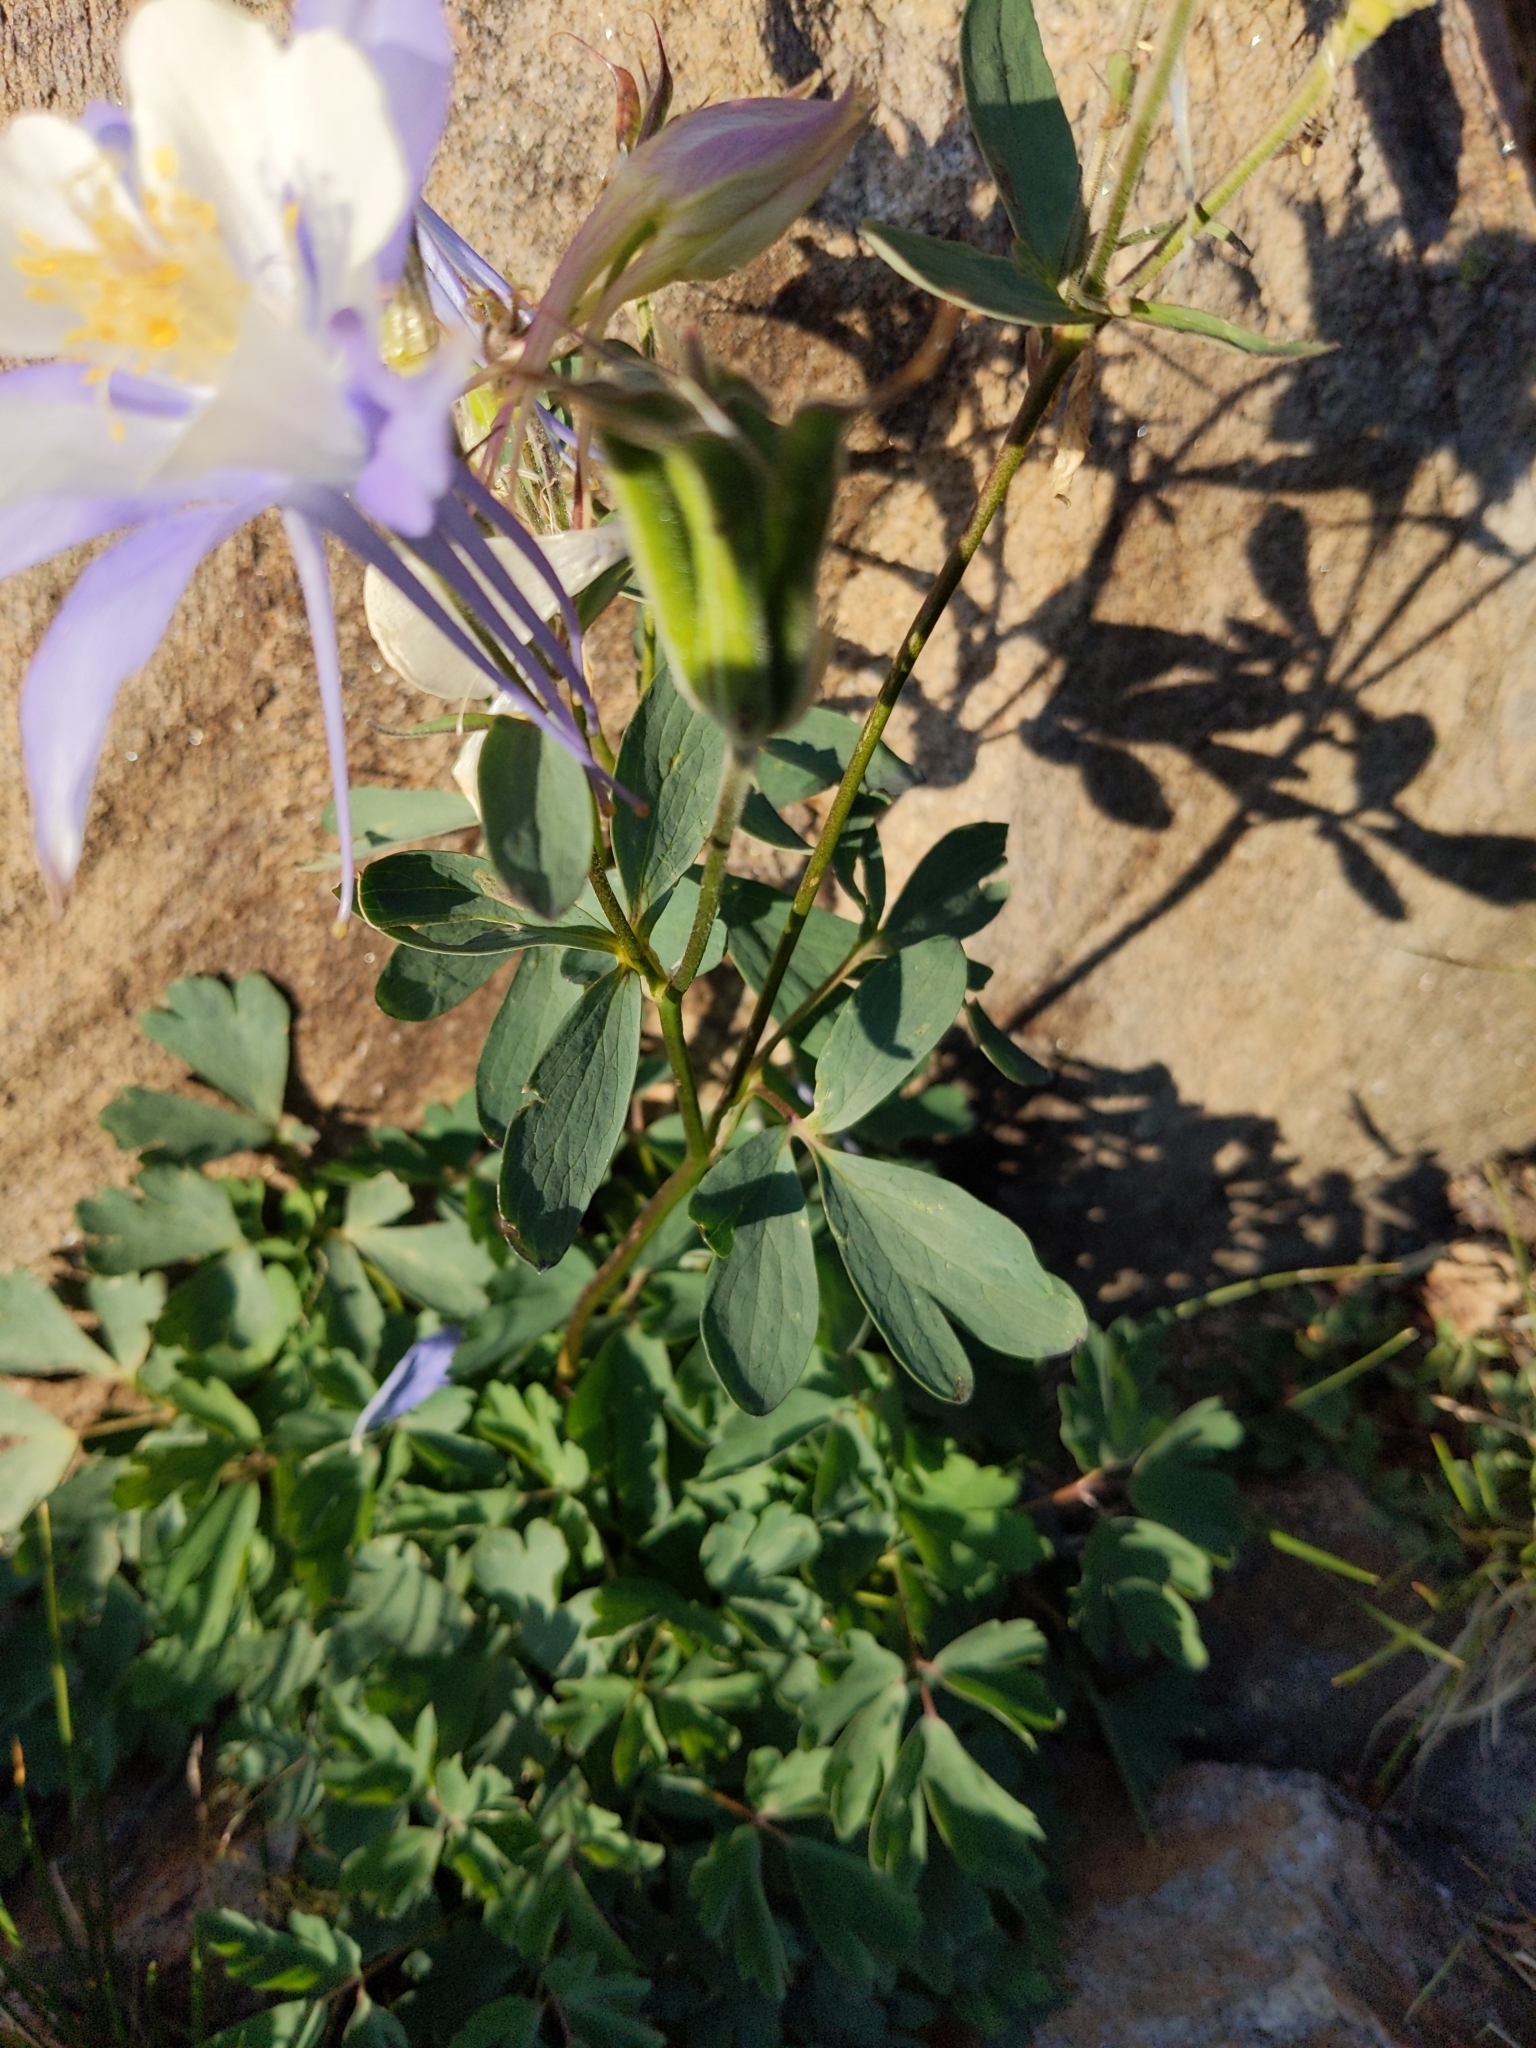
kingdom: Plantae
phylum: Tracheophyta
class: Magnoliopsida
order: Ranunculales
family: Ranunculaceae
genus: Aquilegia
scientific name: Aquilegia coerulea
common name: Rocky mountain columbine
